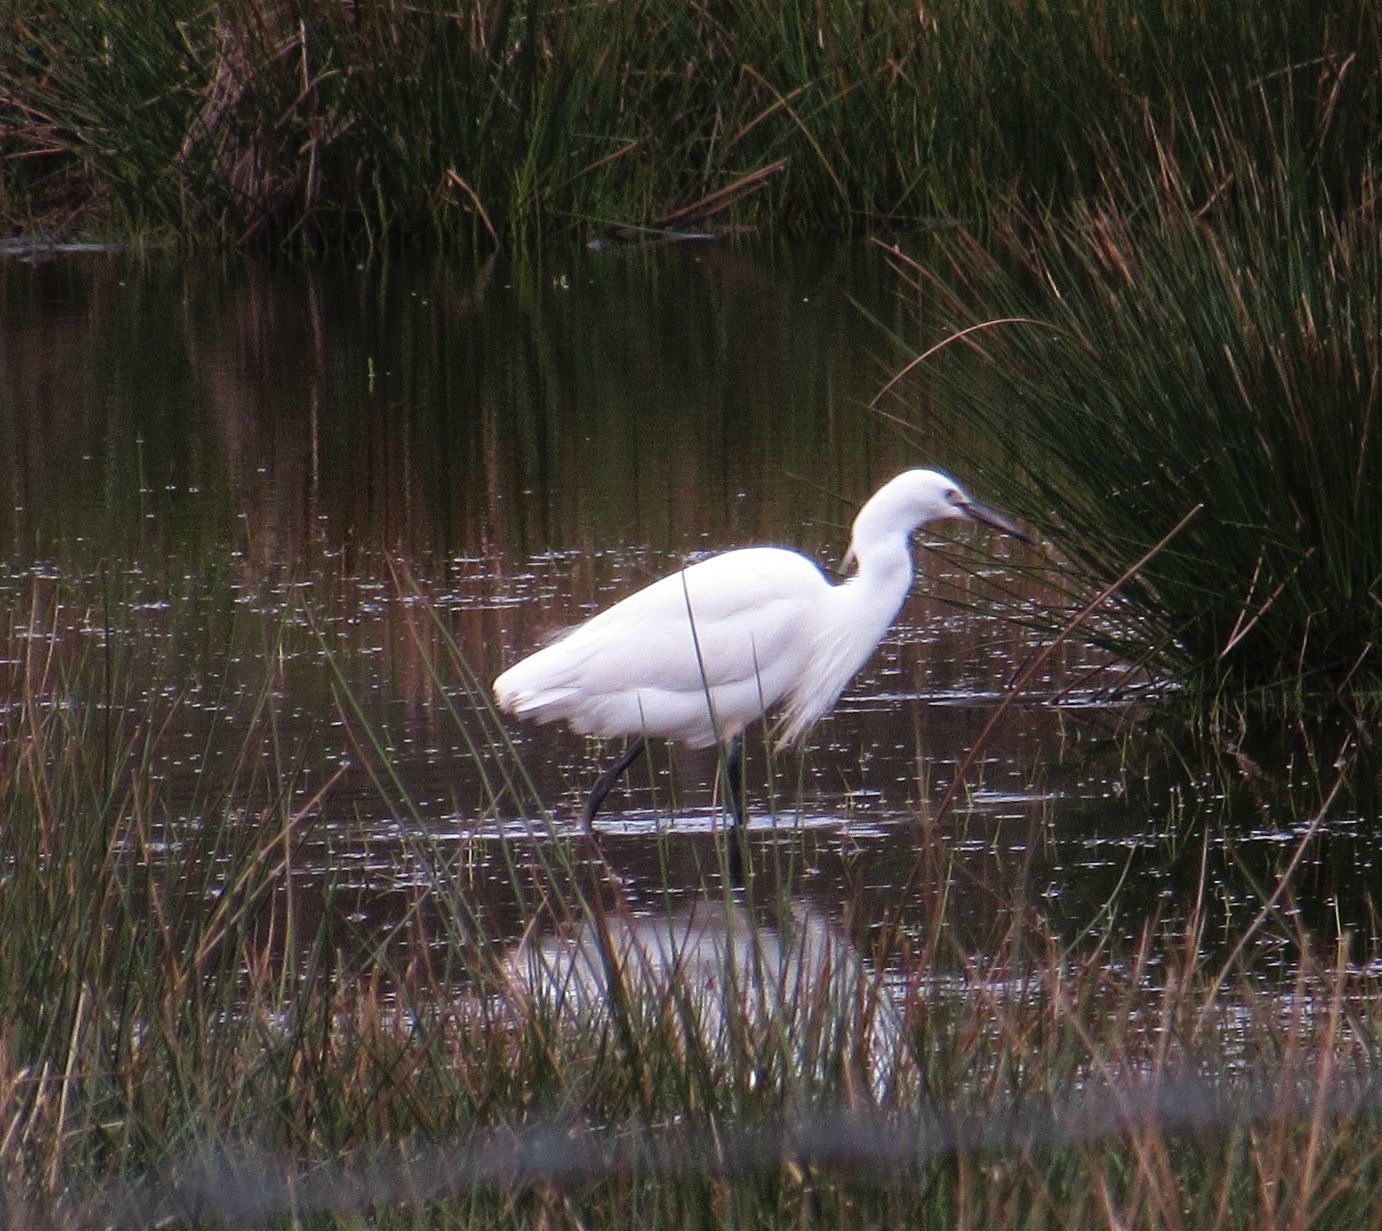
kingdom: Animalia
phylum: Chordata
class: Aves
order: Pelecaniformes
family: Ardeidae
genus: Egretta
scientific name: Egretta garzetta
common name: Little egret
